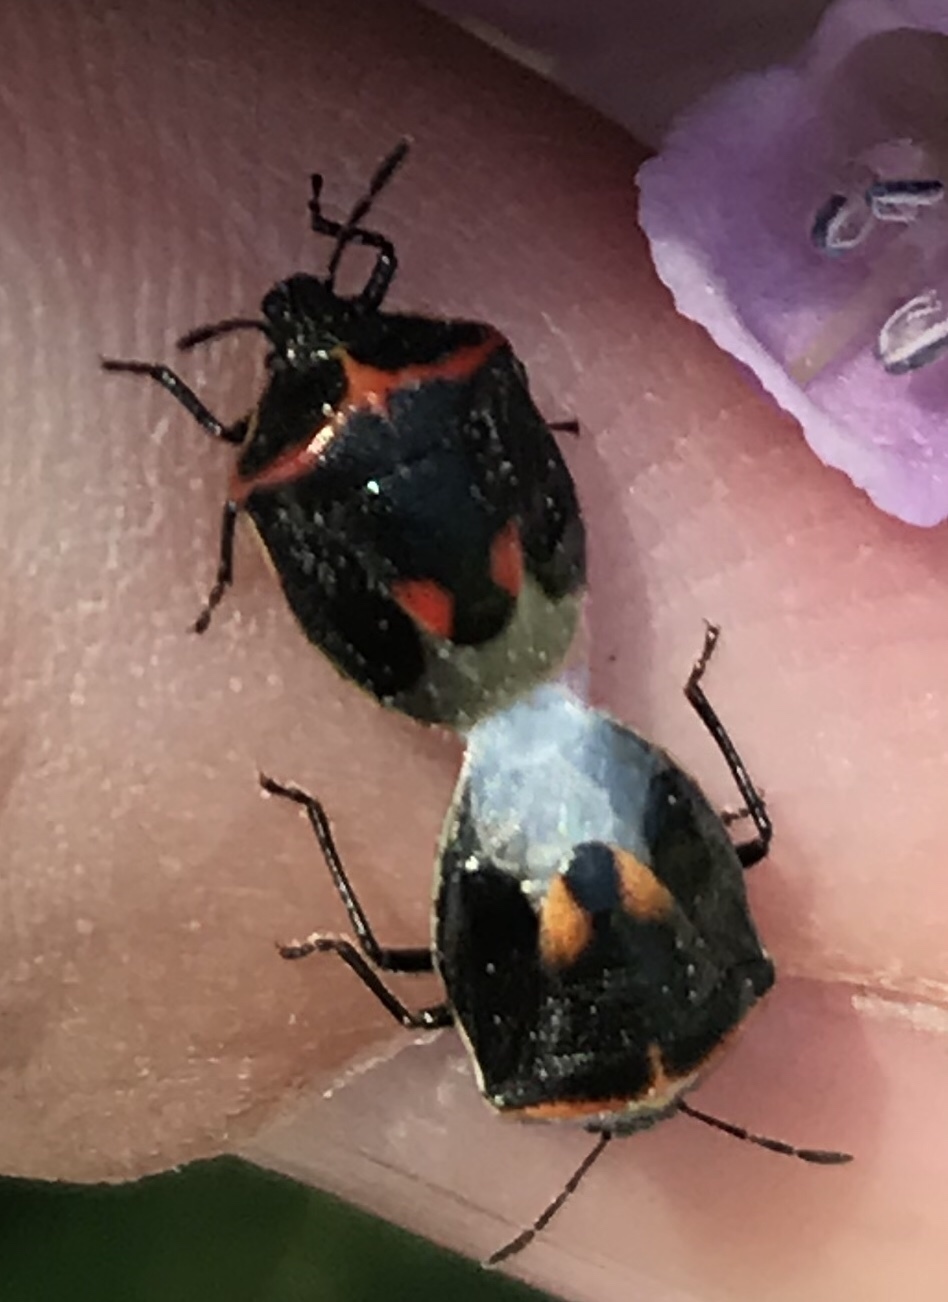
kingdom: Animalia
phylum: Arthropoda
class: Insecta
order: Hemiptera
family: Pentatomidae
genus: Cosmopepla
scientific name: Cosmopepla lintneriana
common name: Twice-stabbed stink bug
